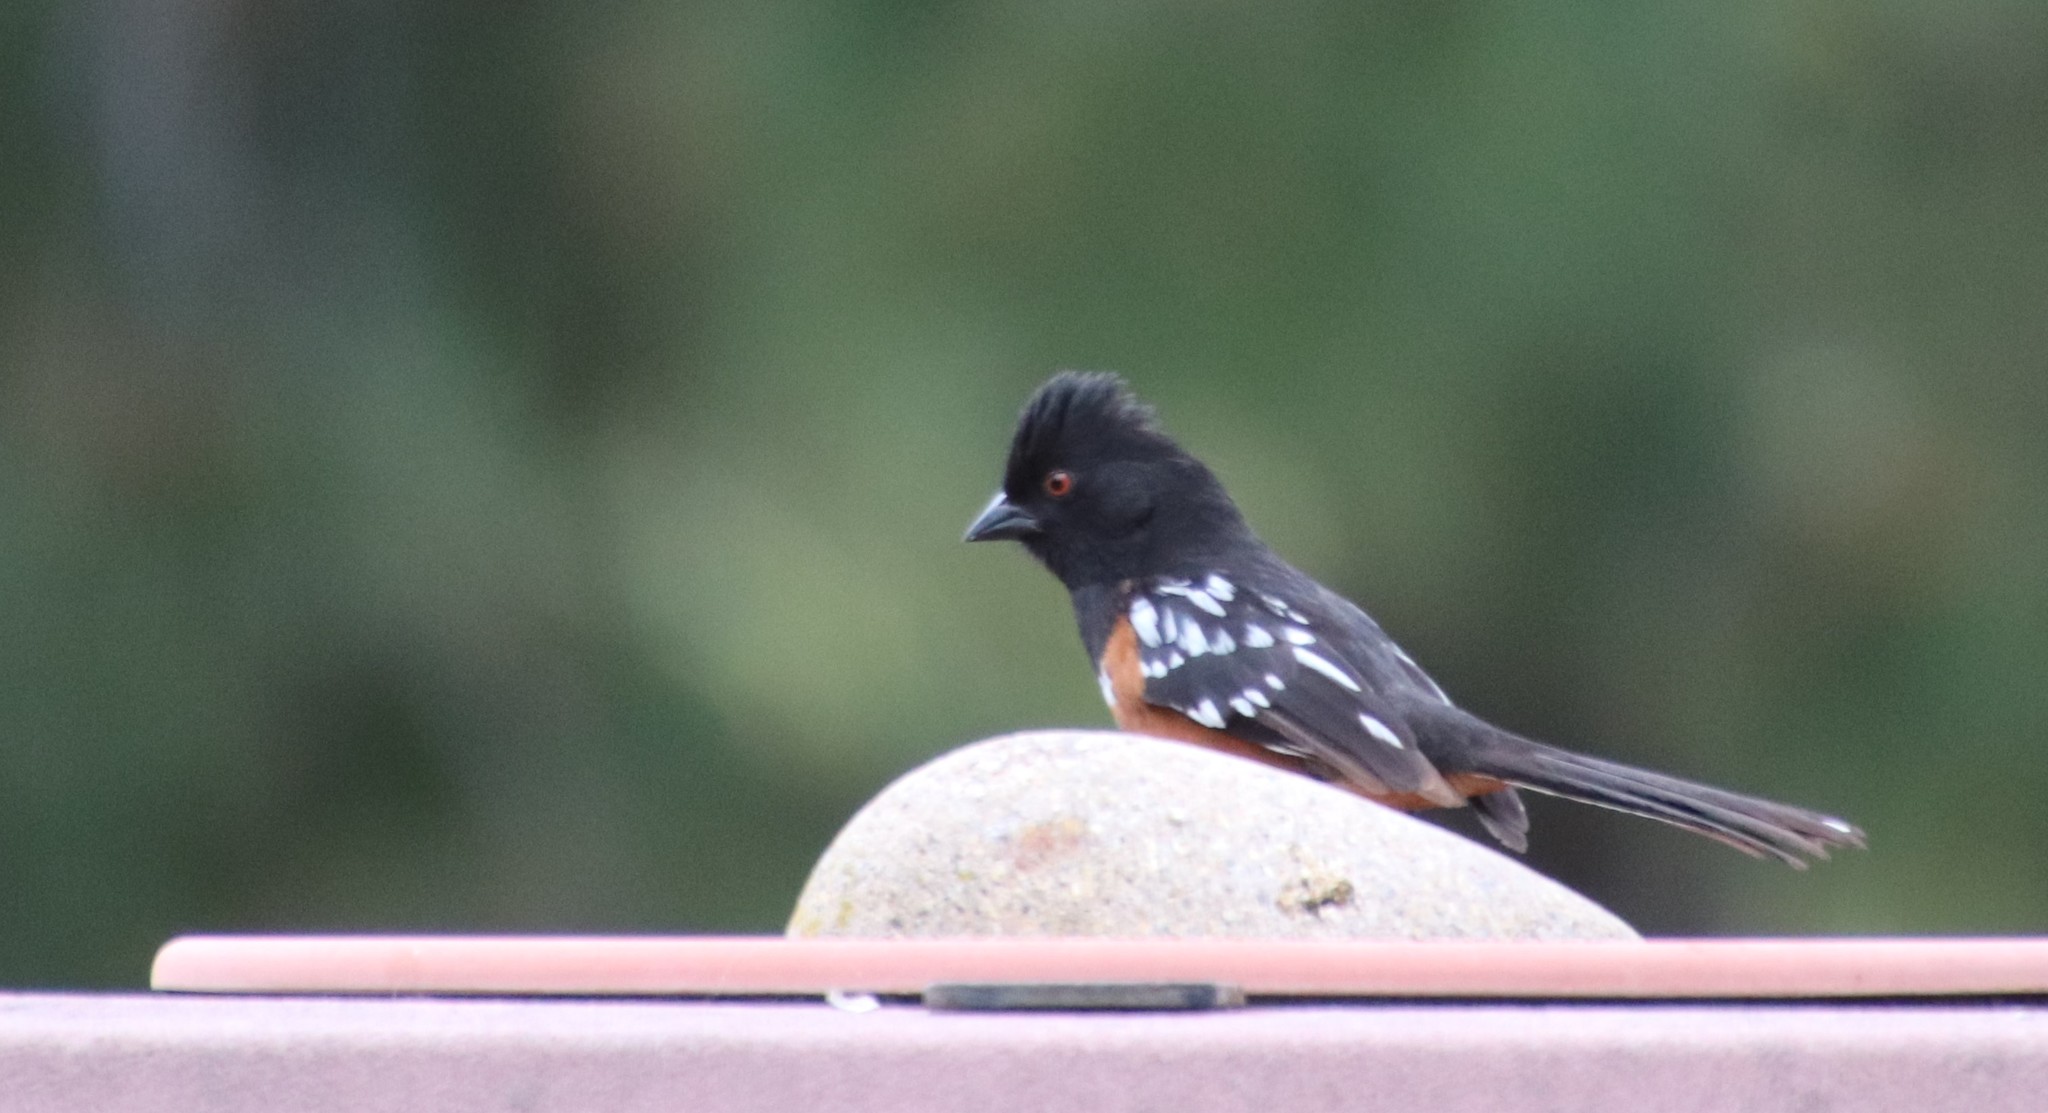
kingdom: Animalia
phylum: Chordata
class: Aves
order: Passeriformes
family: Passerellidae
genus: Pipilo
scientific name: Pipilo maculatus
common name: Spotted towhee
